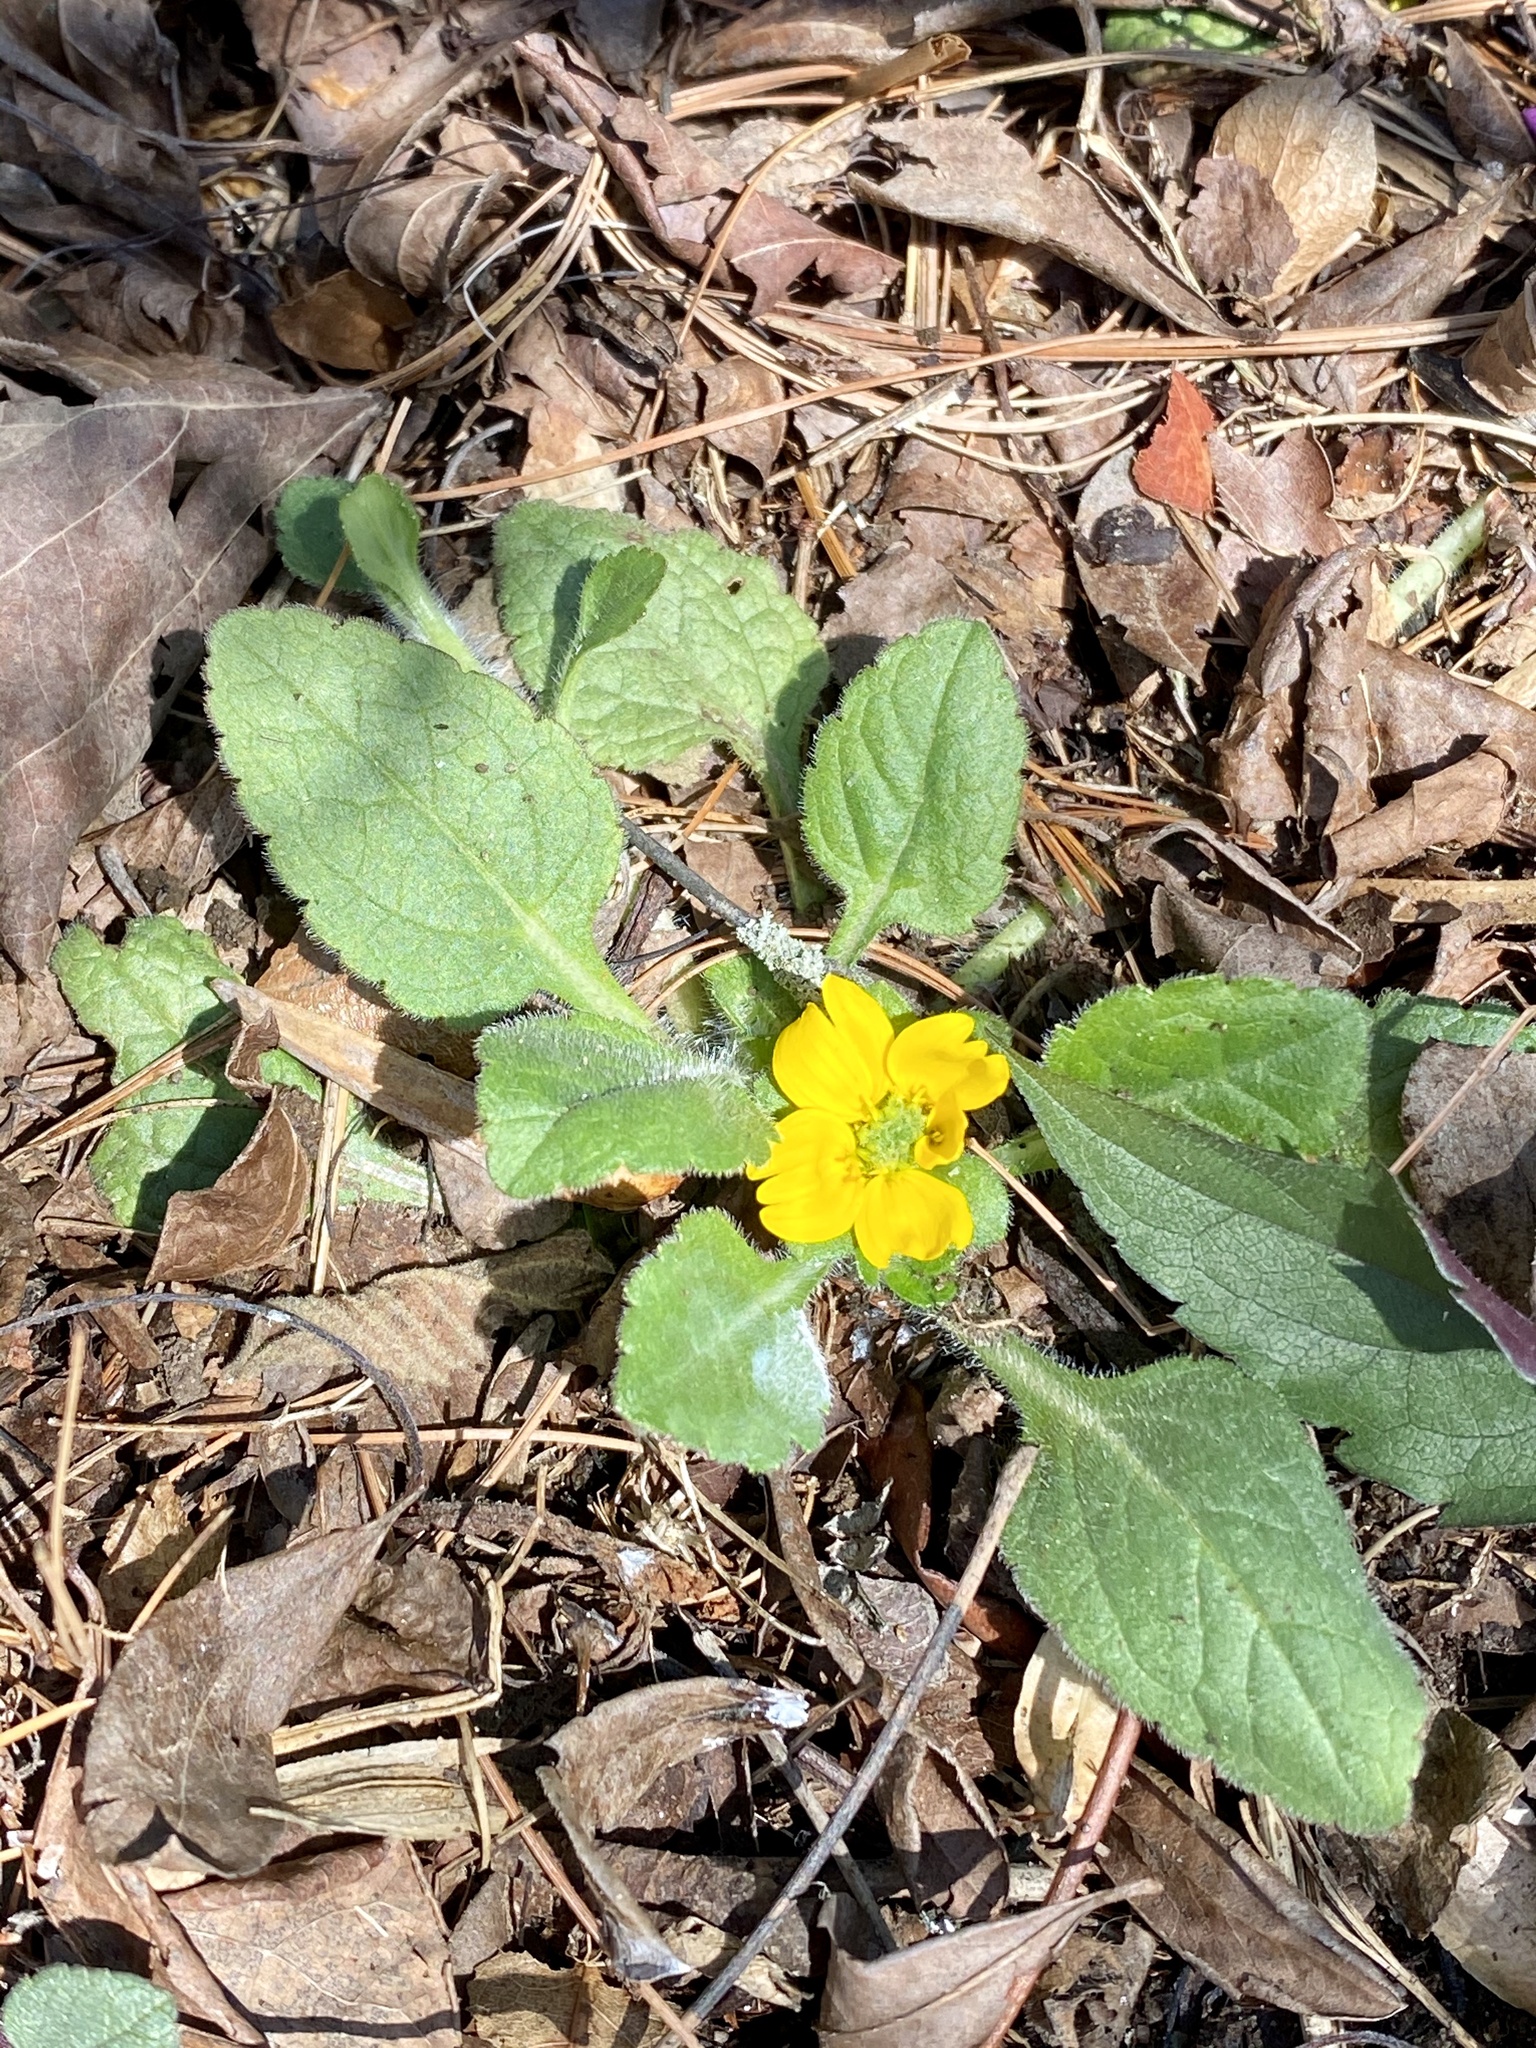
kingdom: Plantae
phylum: Tracheophyta
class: Magnoliopsida
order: Asterales
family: Asteraceae
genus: Chrysogonum
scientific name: Chrysogonum virginianum
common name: Golden-knee
